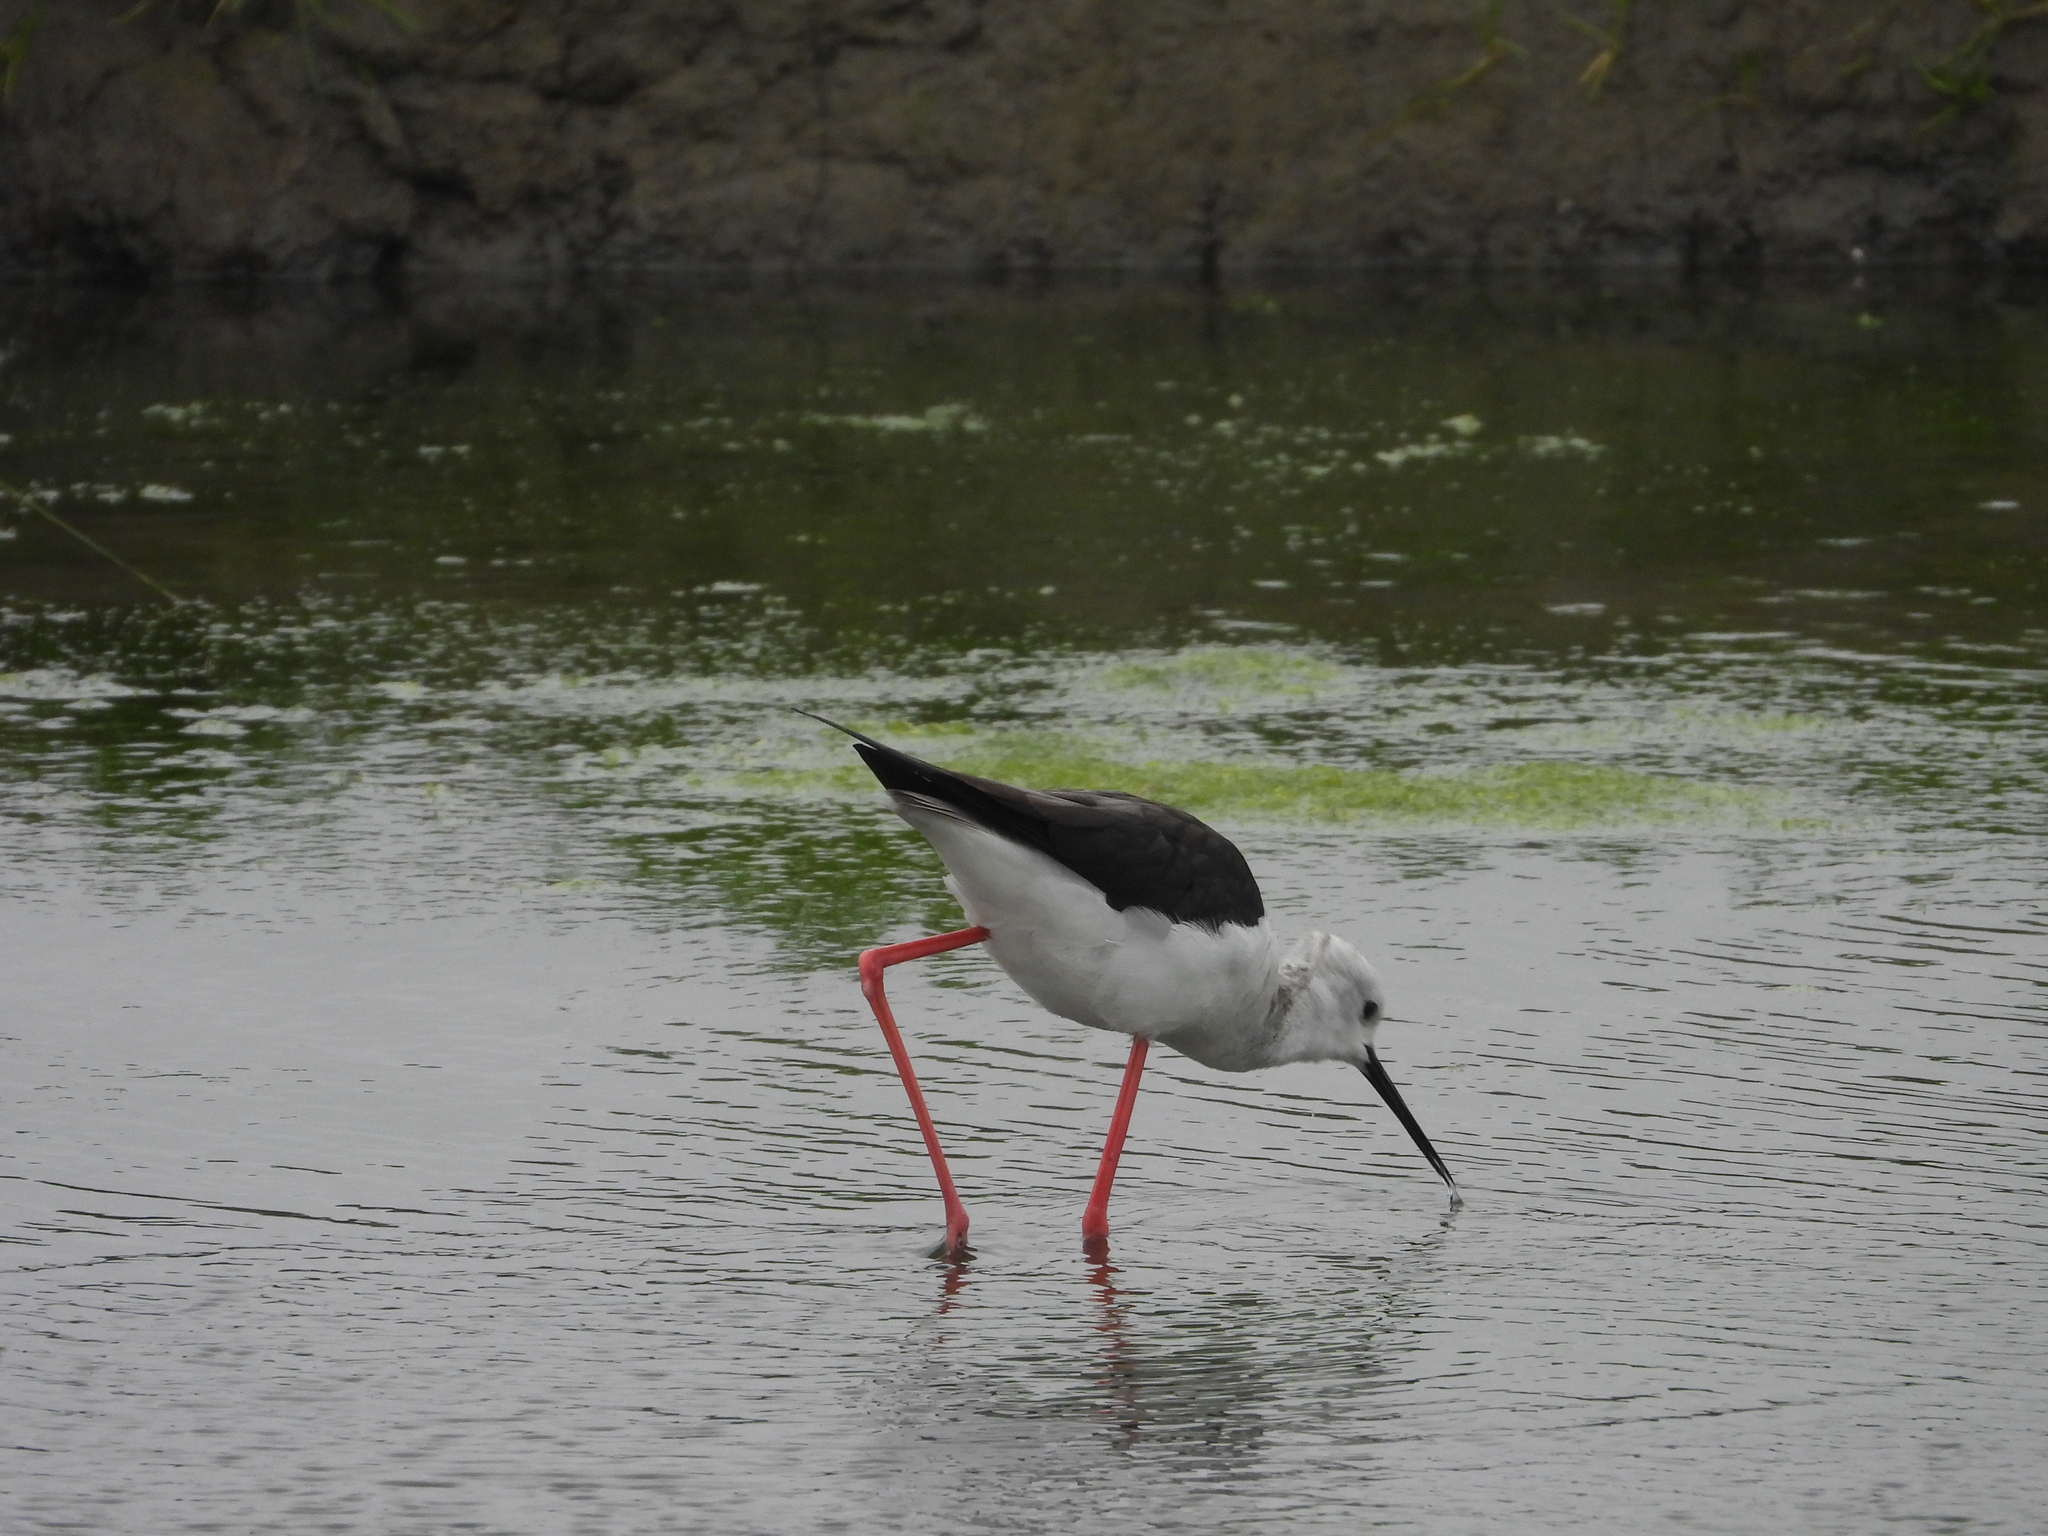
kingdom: Animalia
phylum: Chordata
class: Aves
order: Charadriiformes
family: Recurvirostridae
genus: Himantopus
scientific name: Himantopus himantopus
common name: Black-winged stilt
